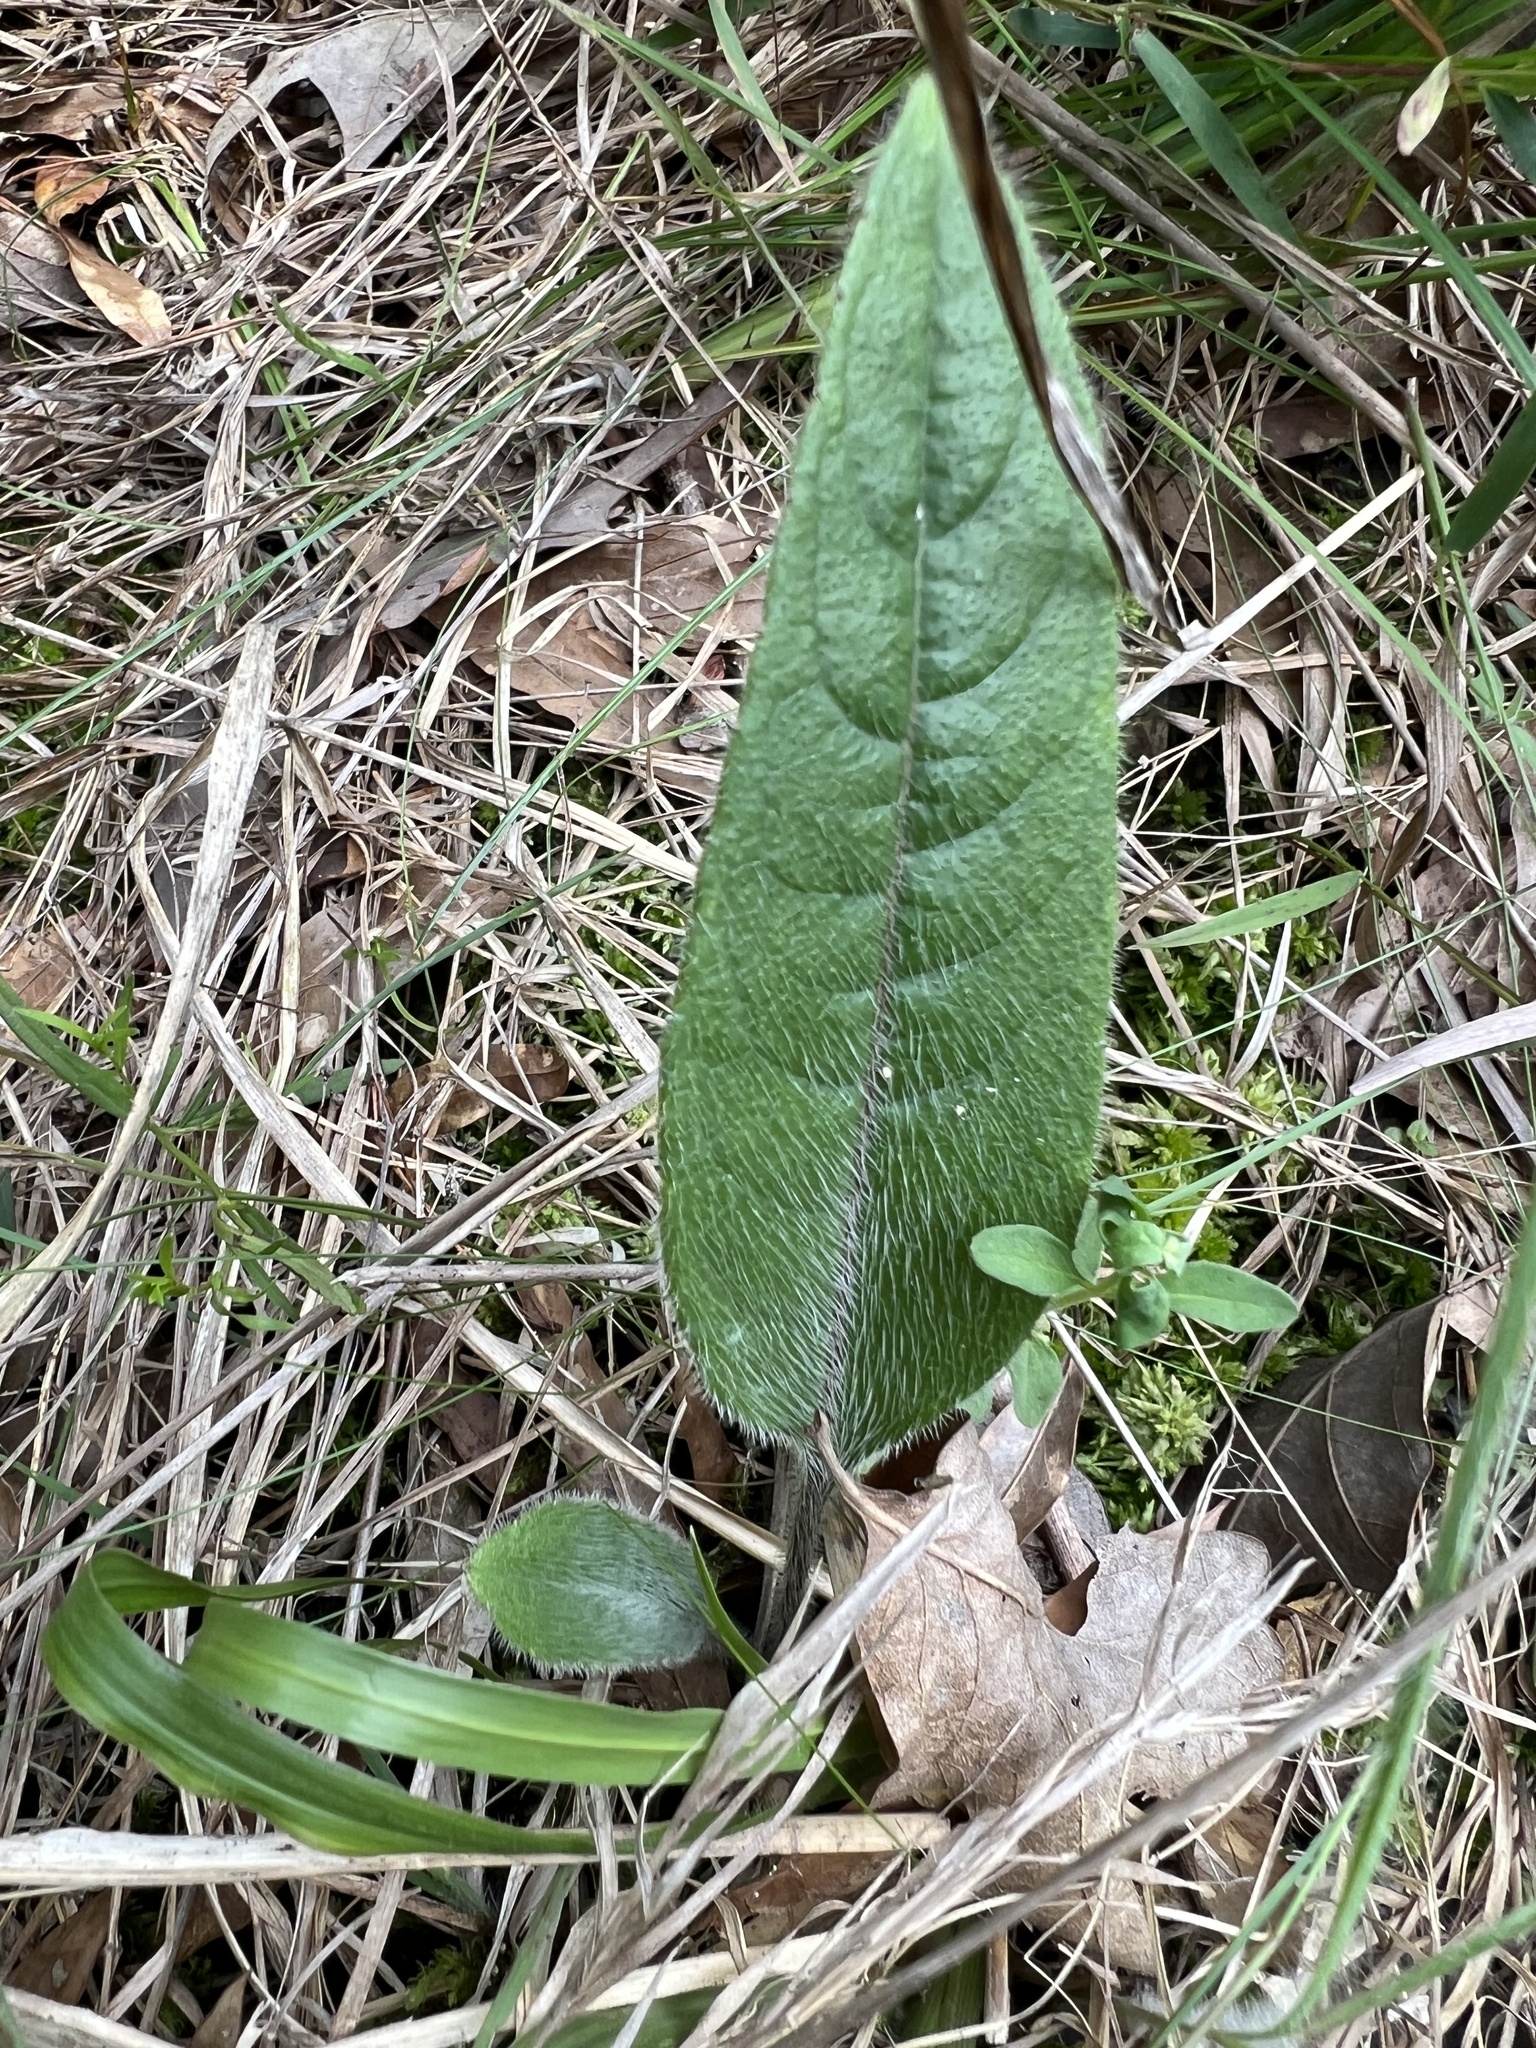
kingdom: Plantae
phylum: Tracheophyta
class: Magnoliopsida
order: Asterales
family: Asteraceae
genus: Silphium
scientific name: Silphium mohrii
